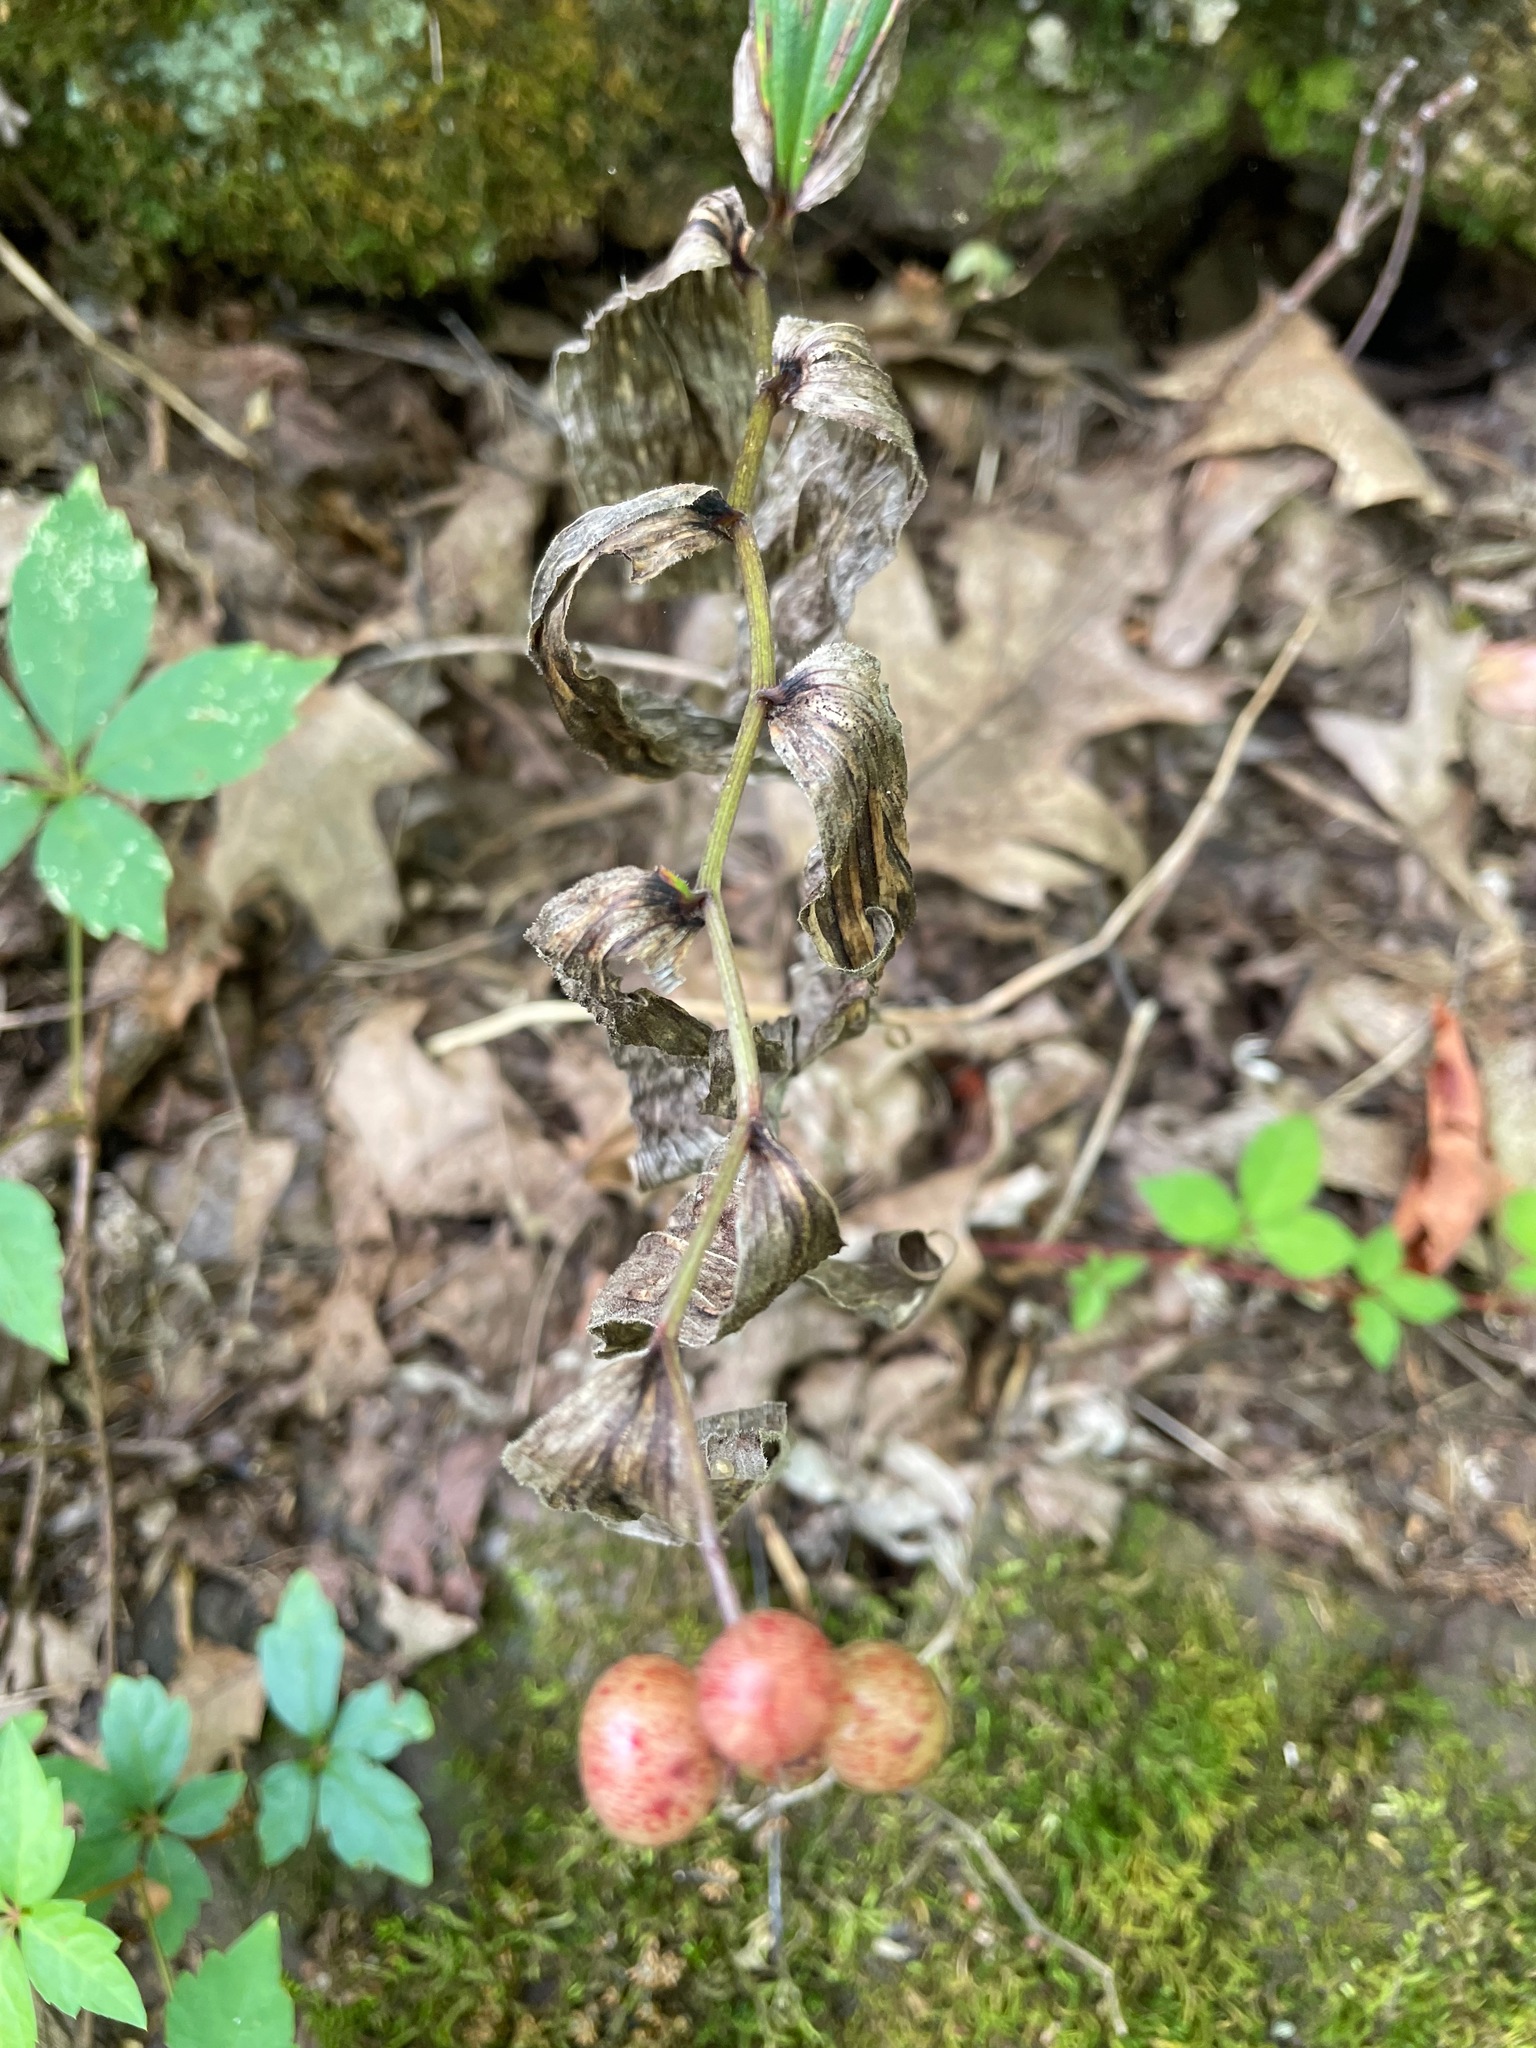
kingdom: Plantae
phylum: Tracheophyta
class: Liliopsida
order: Asparagales
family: Asparagaceae
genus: Maianthemum
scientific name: Maianthemum racemosum
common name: False spikenard
